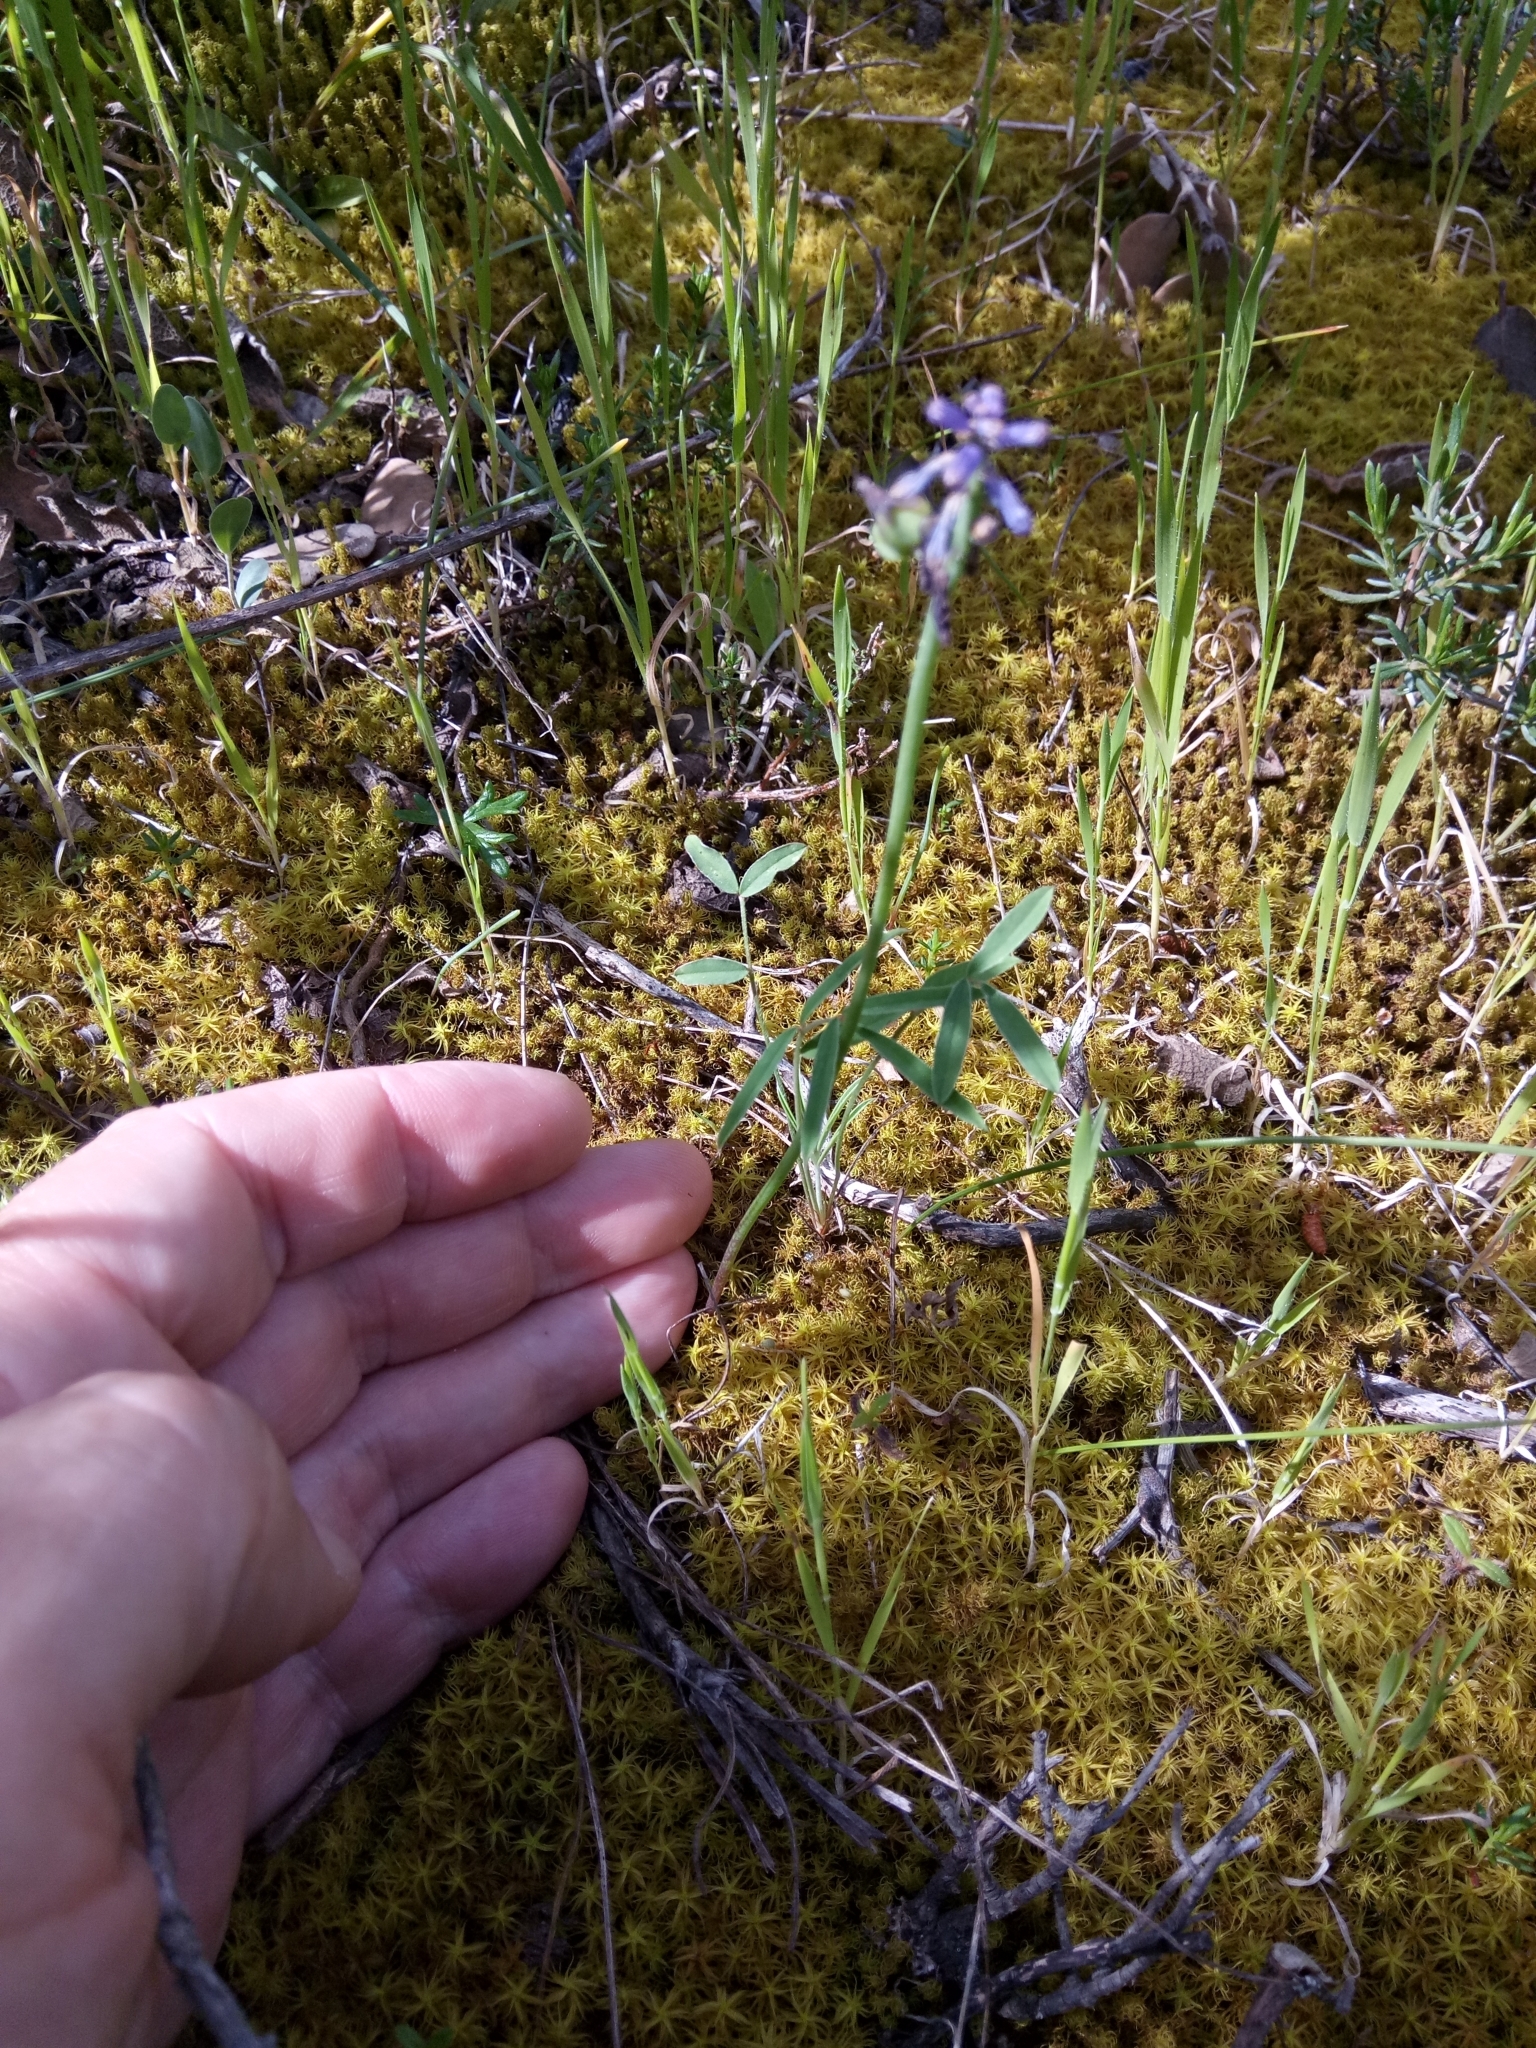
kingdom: Plantae
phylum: Tracheophyta
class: Liliopsida
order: Asparagales
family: Asparagaceae
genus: Muscari
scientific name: Muscari comosum
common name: Tassel hyacinth
